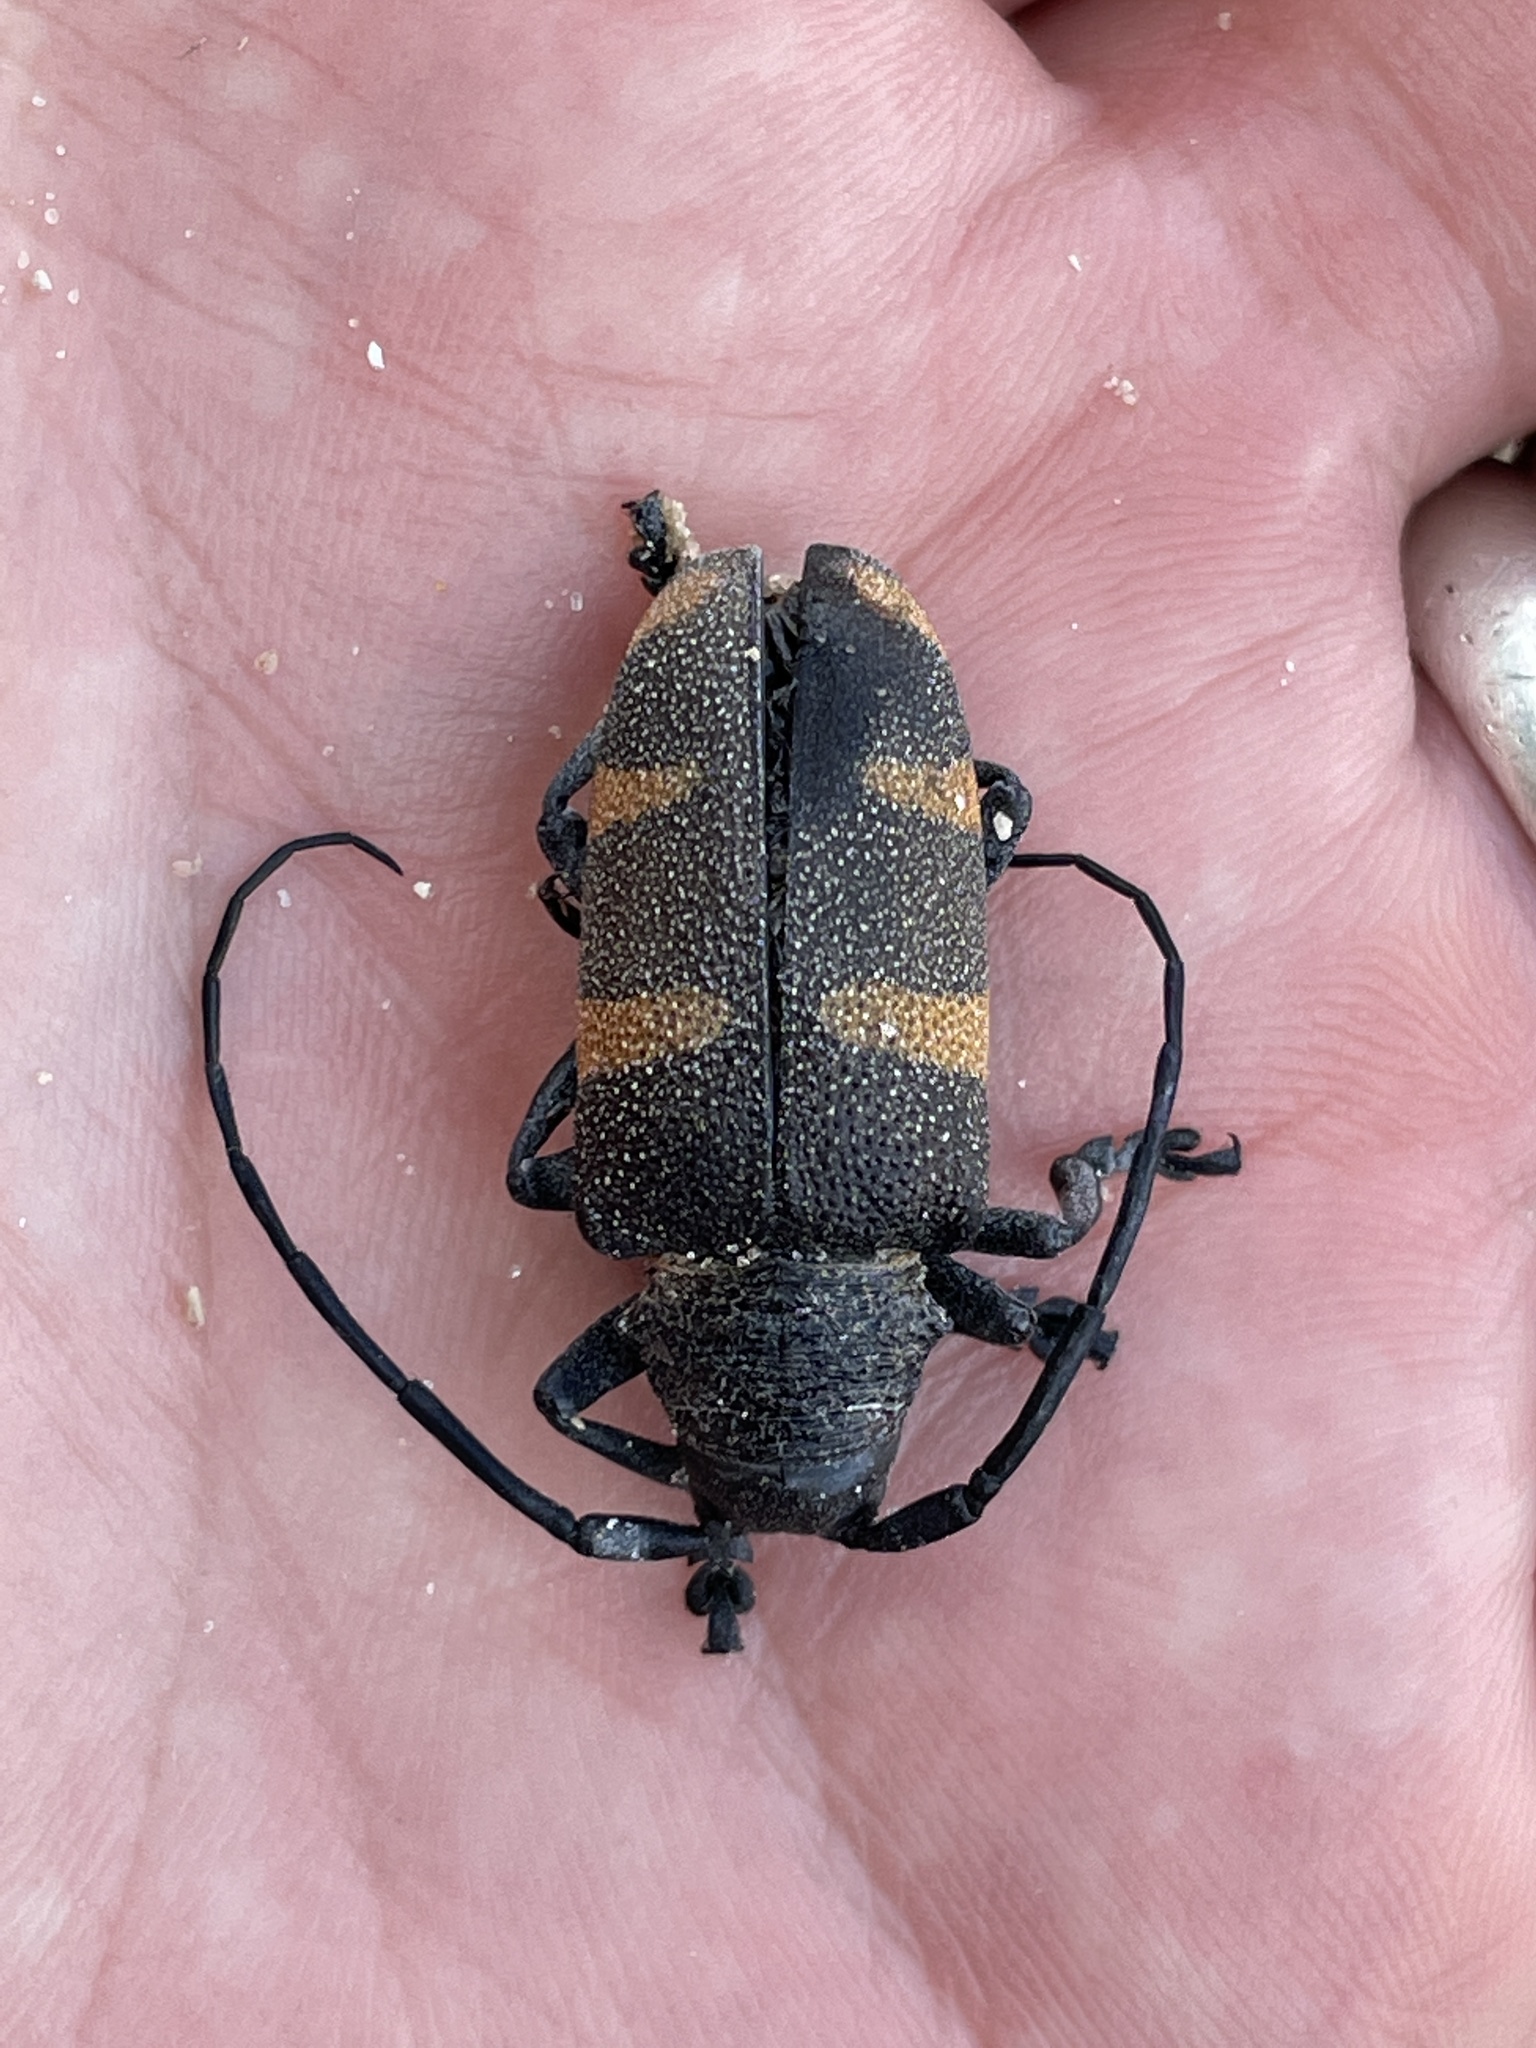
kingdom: Animalia
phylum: Arthropoda
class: Insecta
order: Coleoptera
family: Cerambycidae
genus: Pycnopsis
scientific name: Pycnopsis brachyptera
